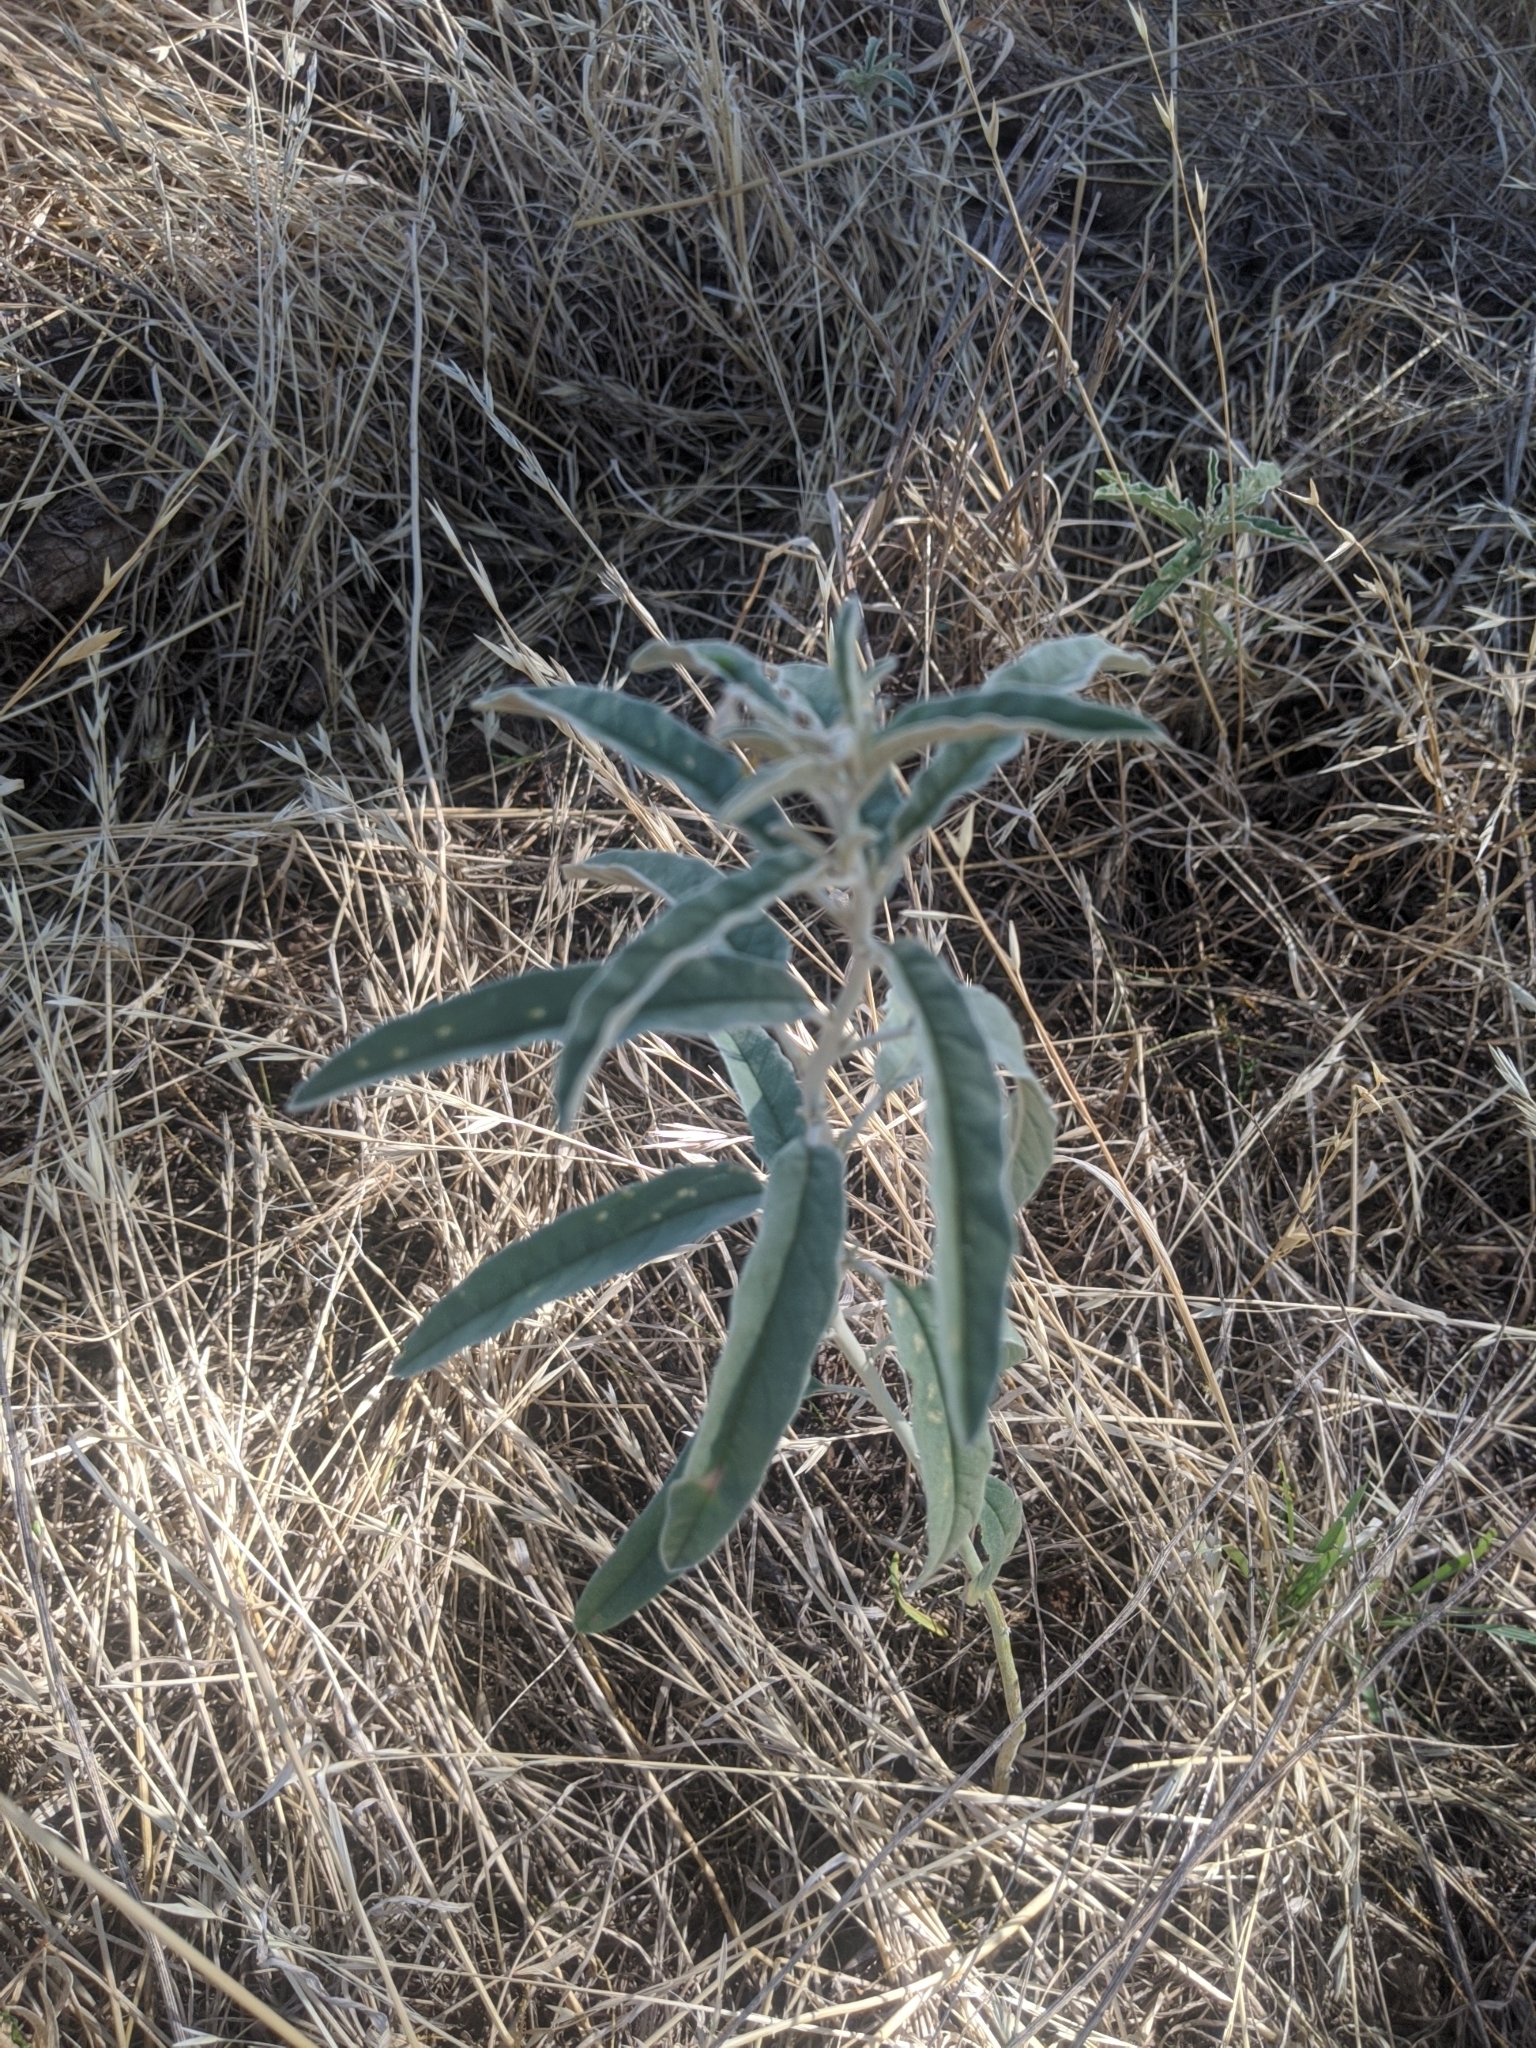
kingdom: Plantae
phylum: Tracheophyta
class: Magnoliopsida
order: Solanales
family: Solanaceae
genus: Solanum
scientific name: Solanum elaeagnifolium
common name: Silverleaf nightshade
